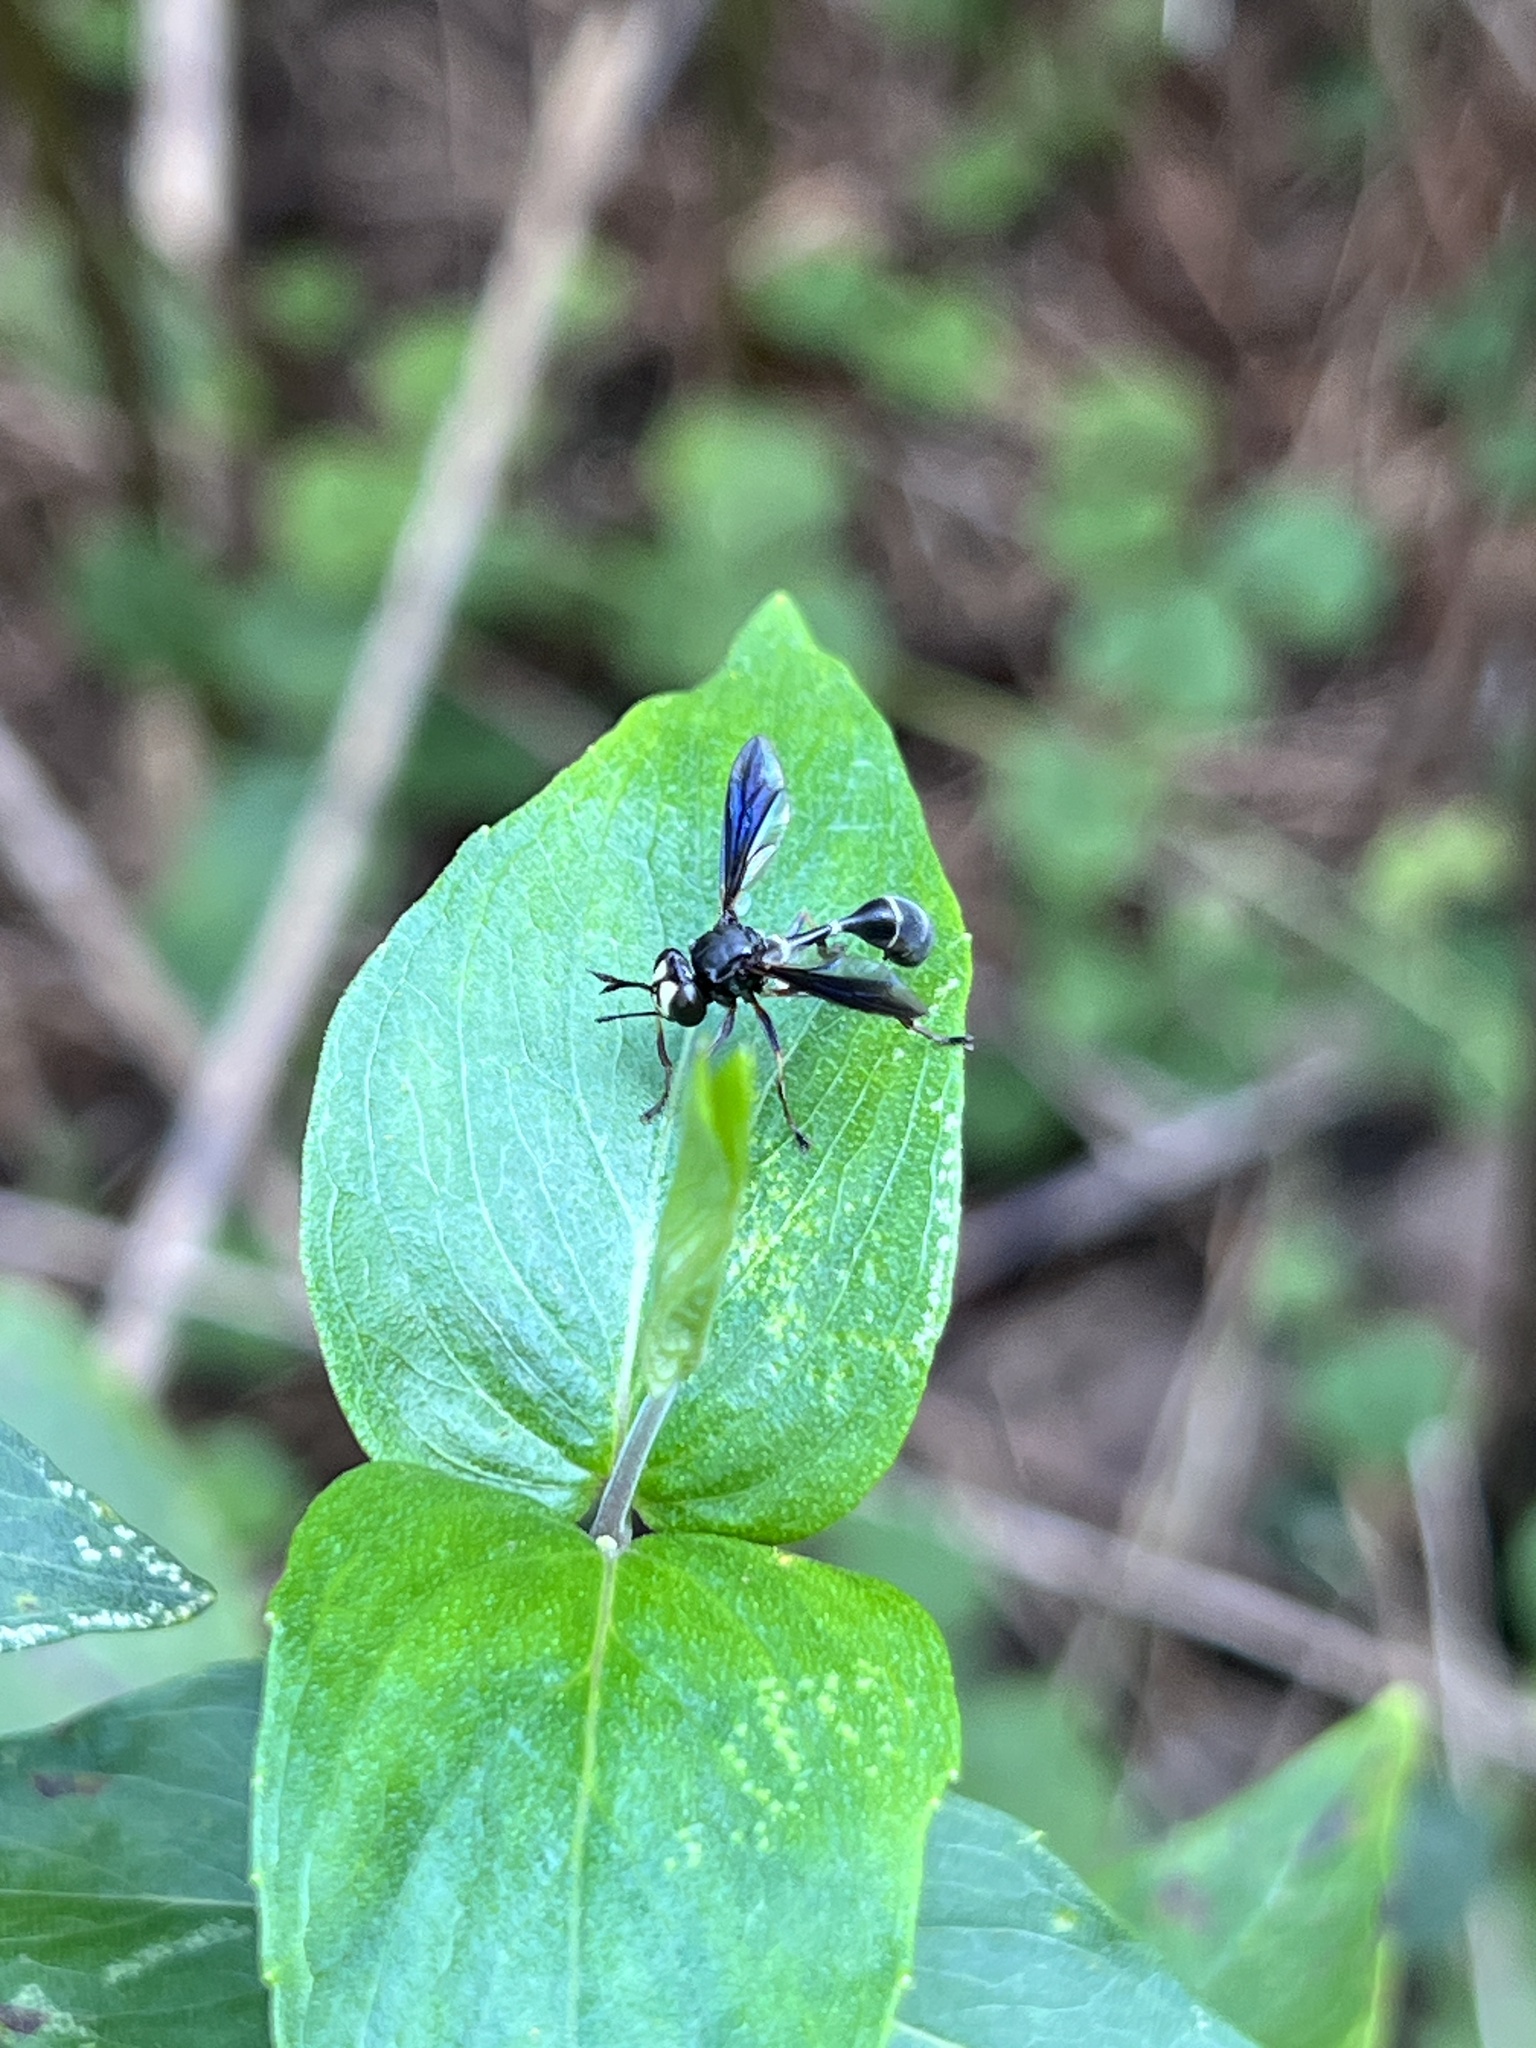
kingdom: Animalia
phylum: Arthropoda
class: Insecta
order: Diptera
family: Conopidae
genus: Physocephala
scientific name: Physocephala tibialis
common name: Common eastern physocephala
